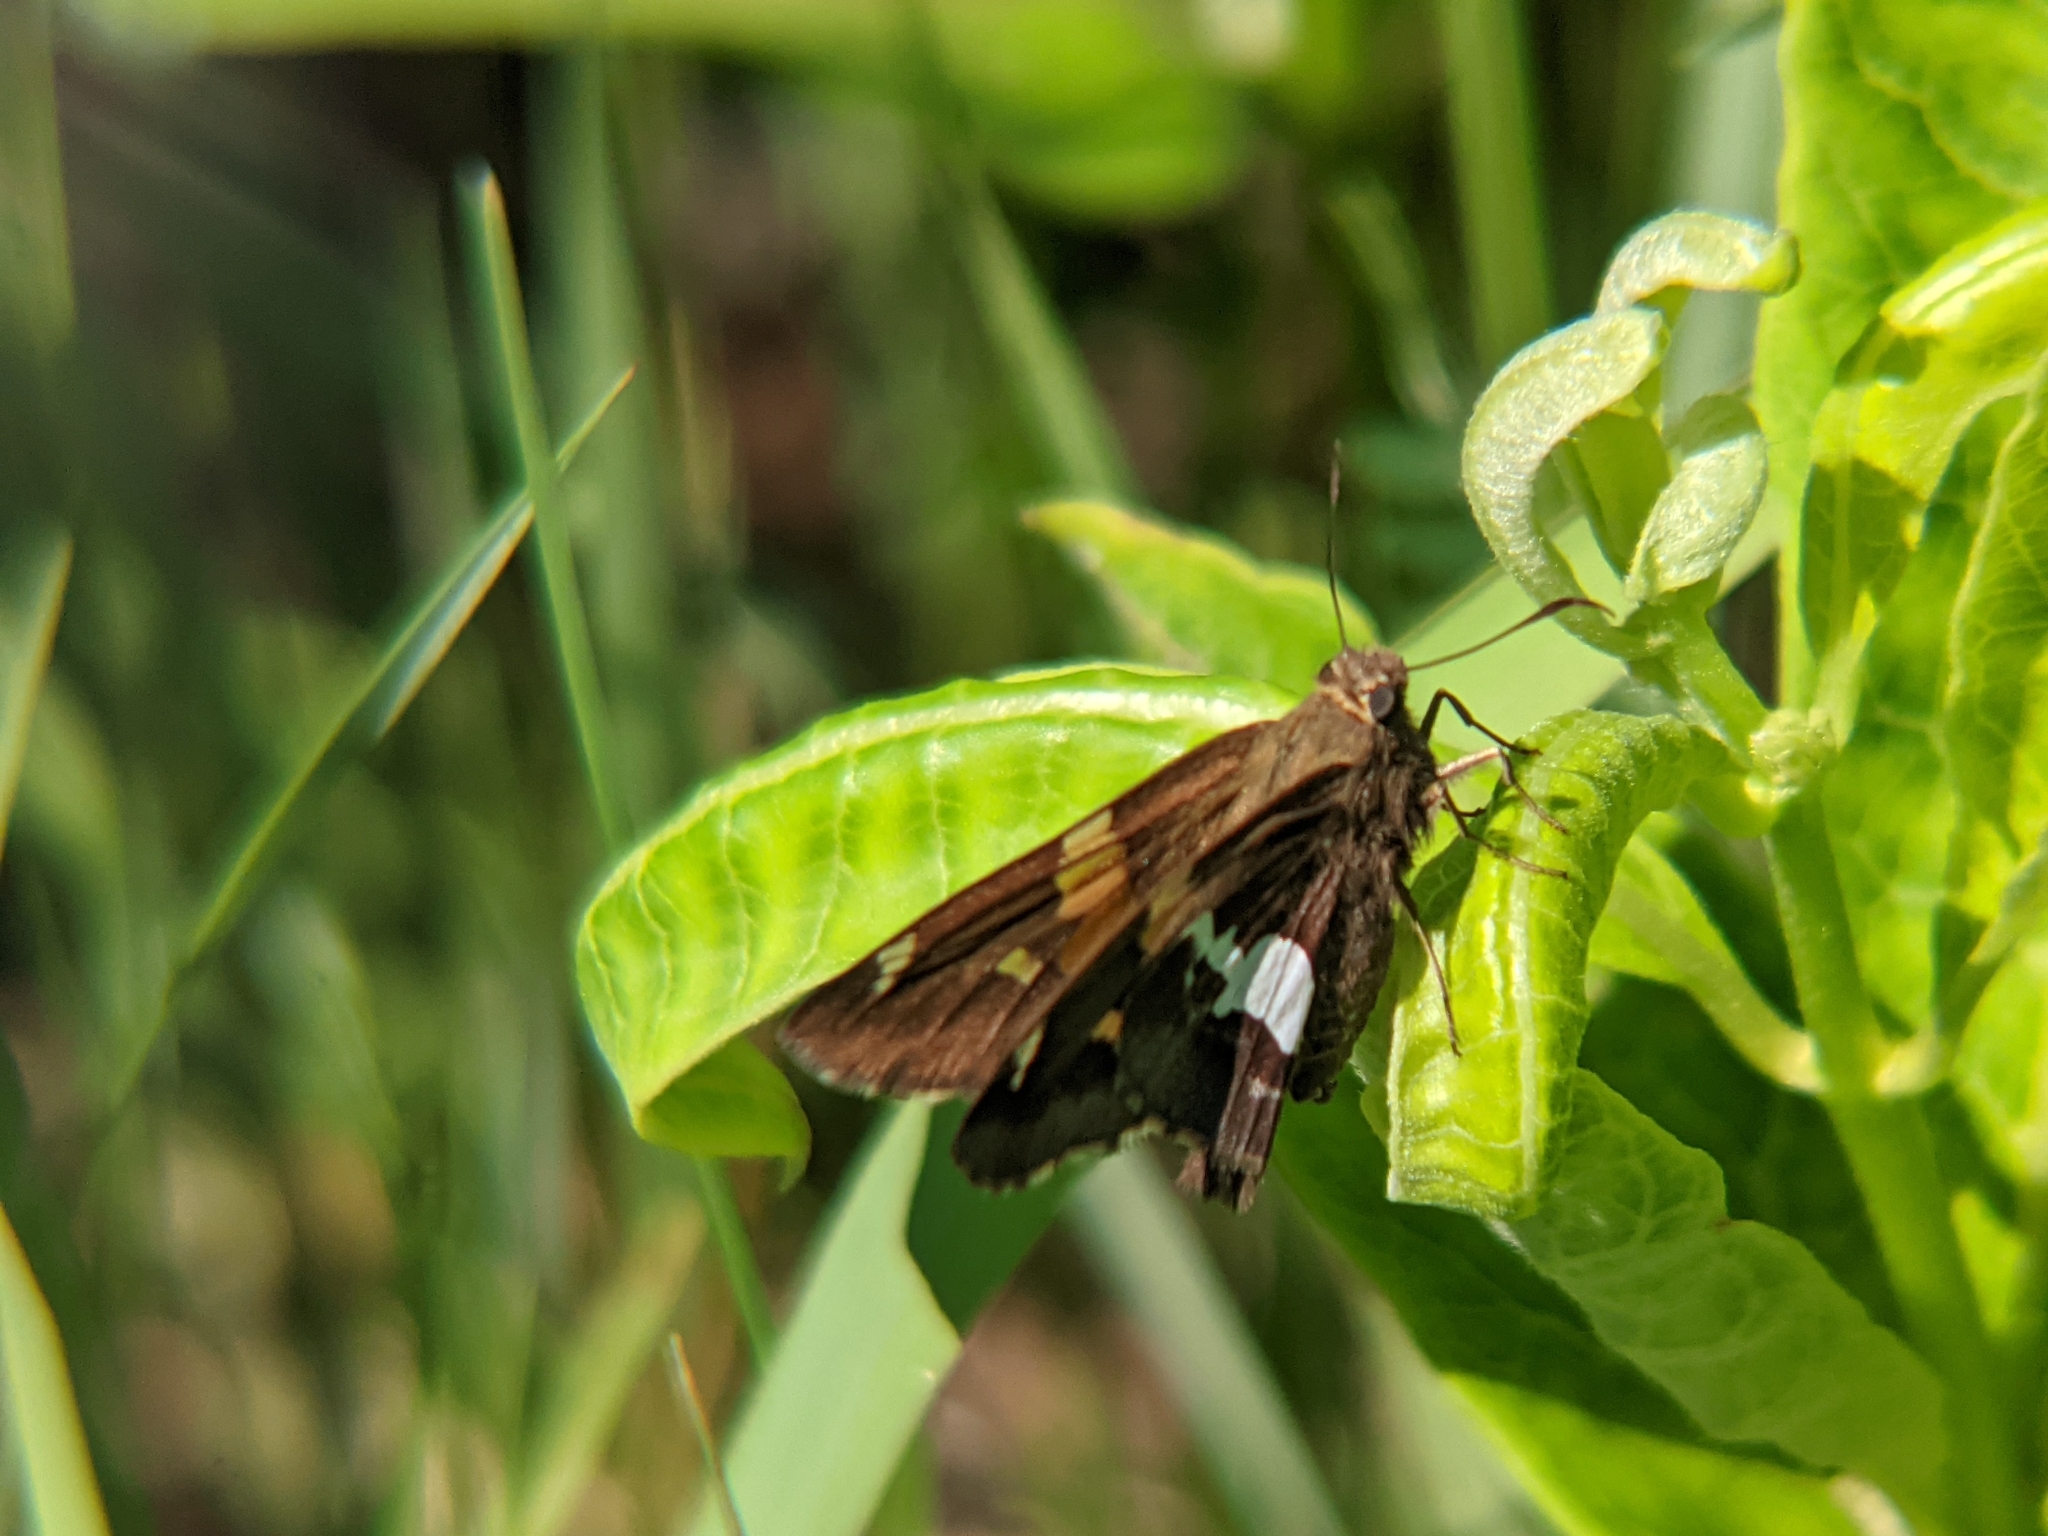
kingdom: Animalia
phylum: Arthropoda
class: Insecta
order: Lepidoptera
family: Hesperiidae
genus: Epargyreus
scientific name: Epargyreus clarus
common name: Silver-spotted skipper
